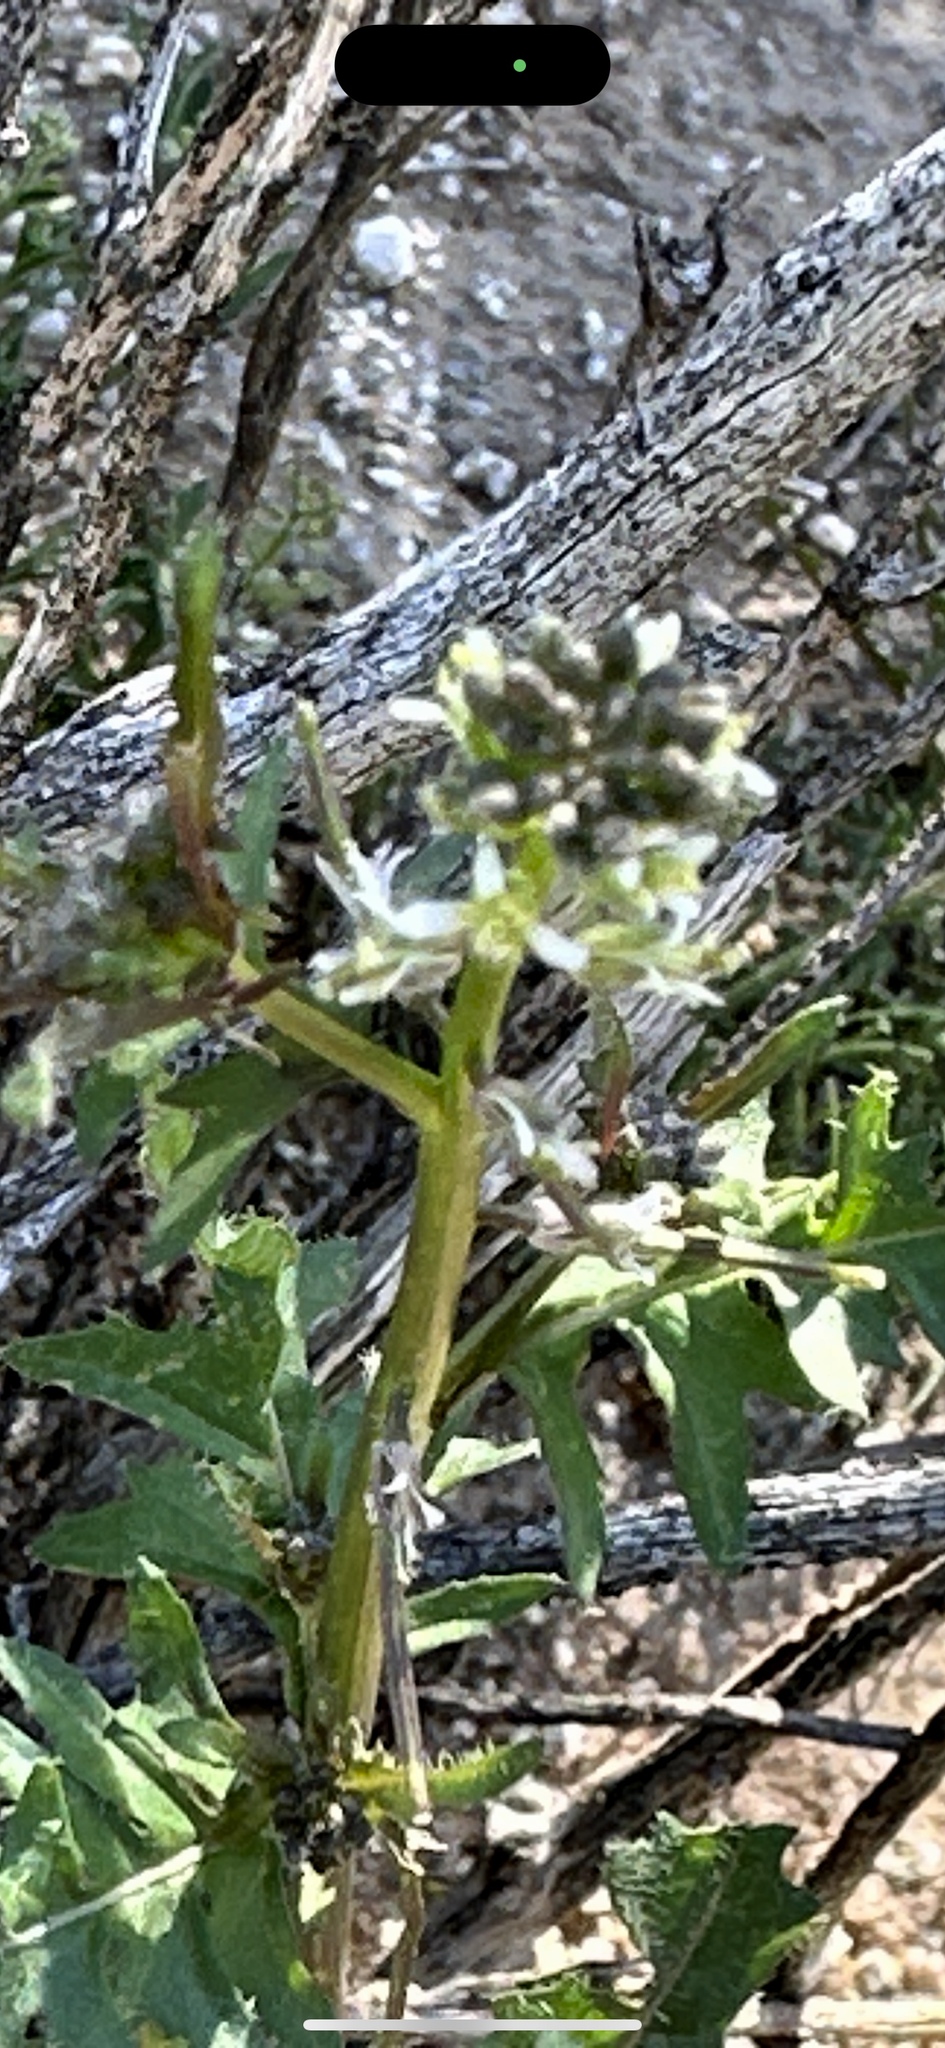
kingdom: Plantae
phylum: Tracheophyta
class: Magnoliopsida
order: Brassicales
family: Brassicaceae
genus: Streptanthus
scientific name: Streptanthus lasiophyllus
